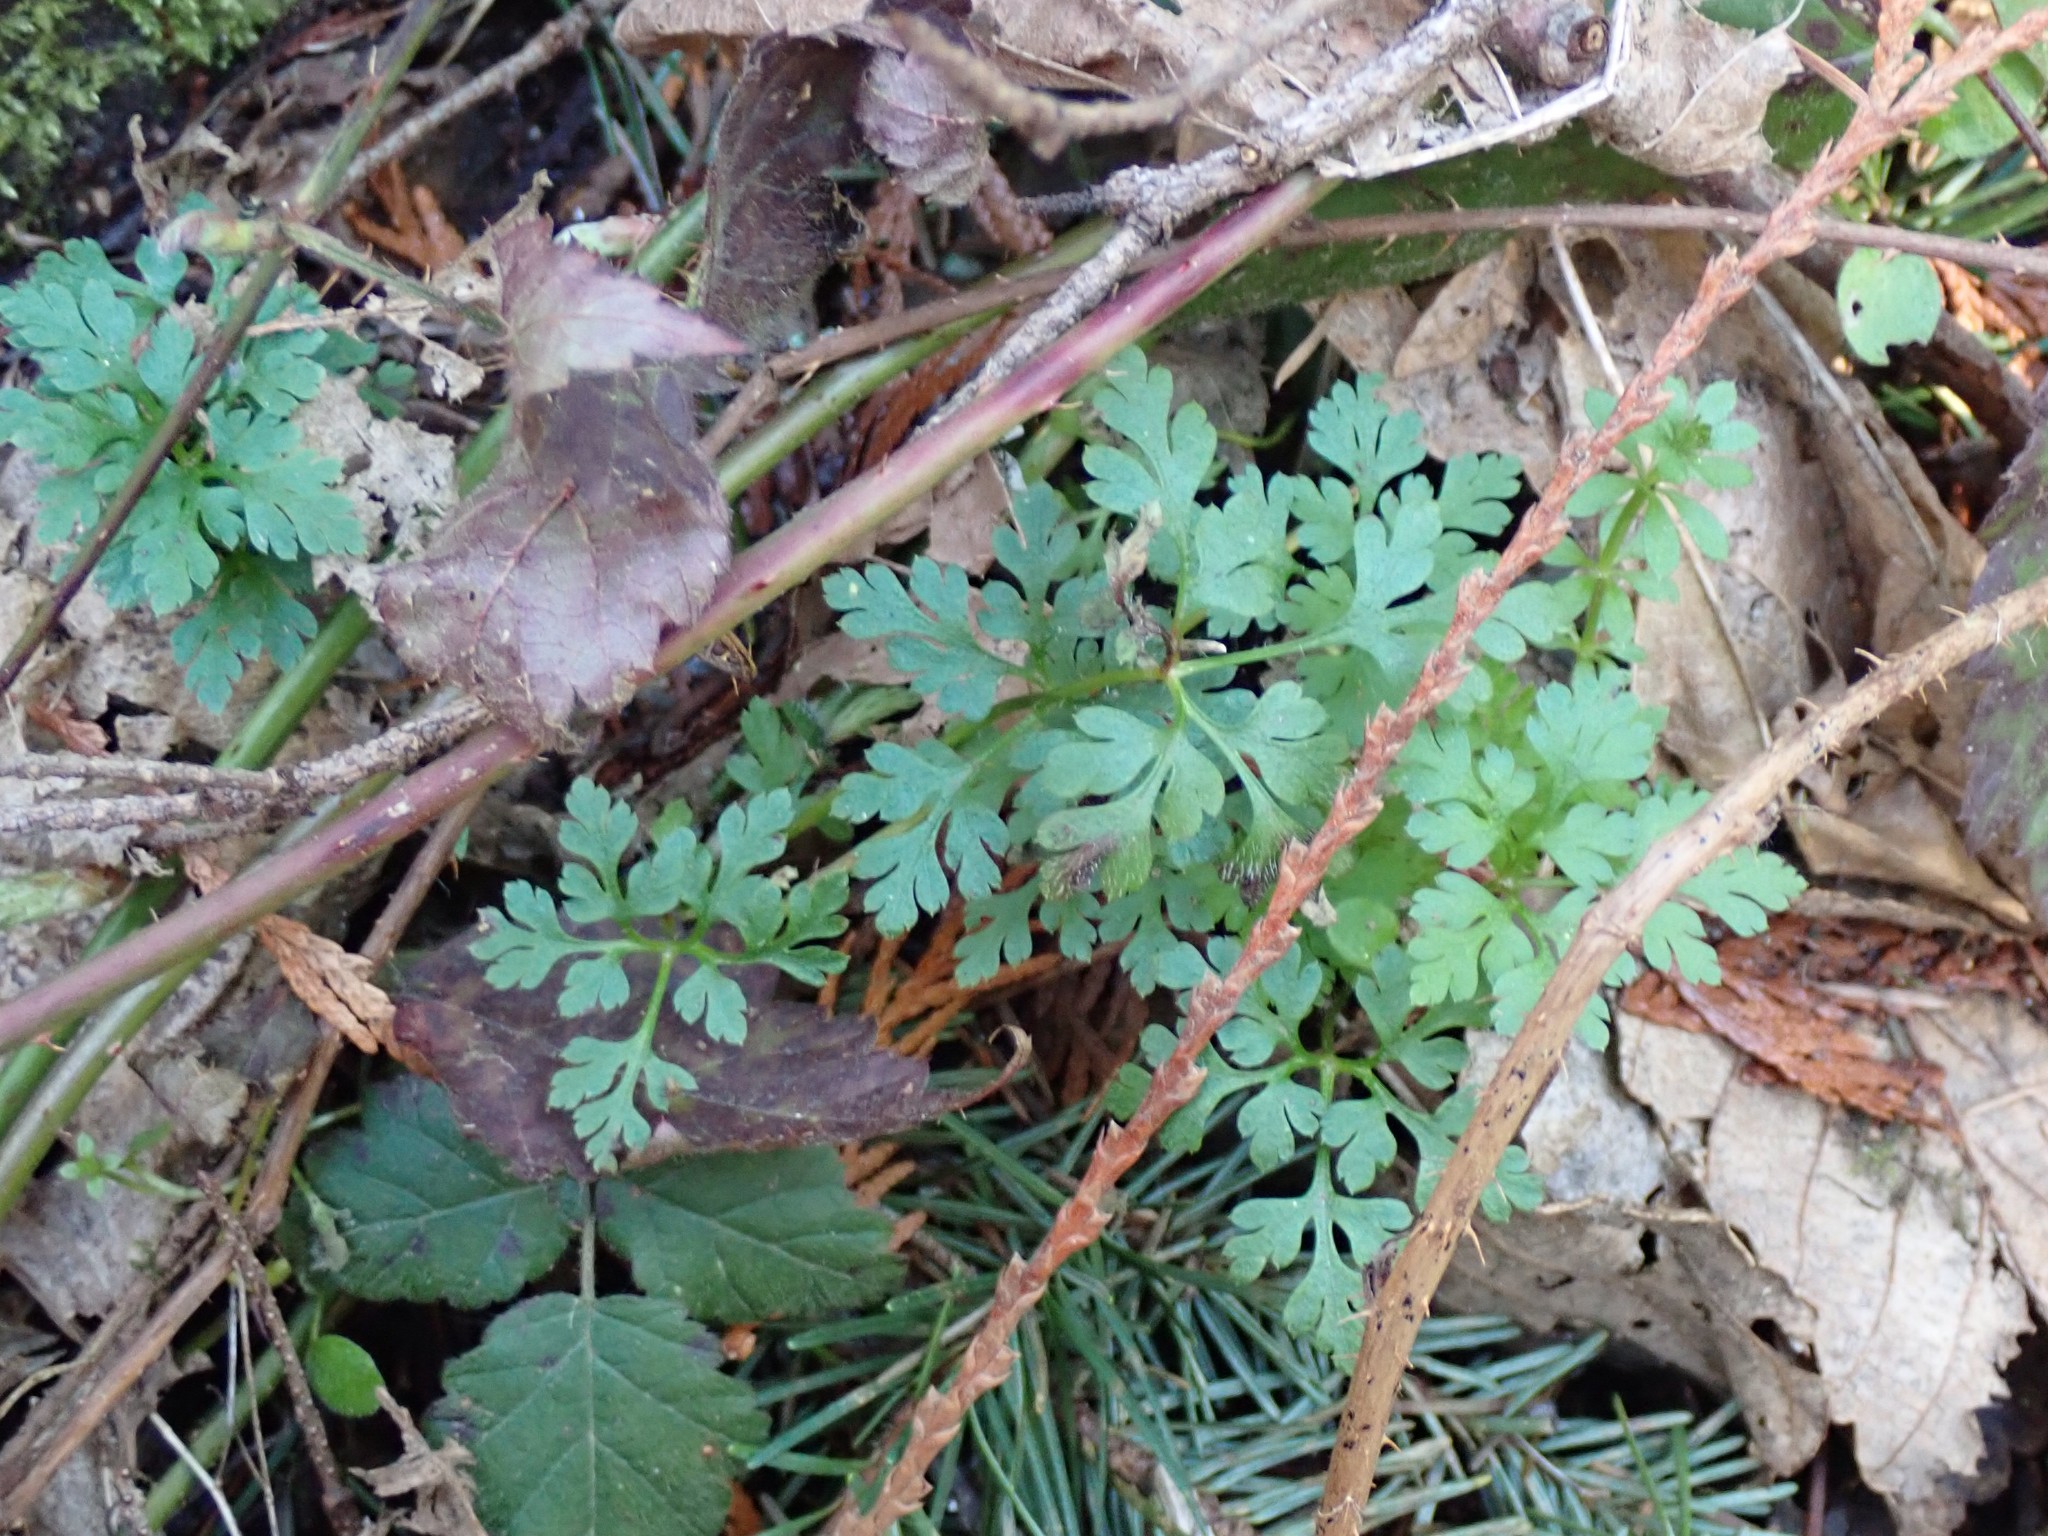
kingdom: Plantae
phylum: Tracheophyta
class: Magnoliopsida
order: Geraniales
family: Geraniaceae
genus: Geranium
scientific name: Geranium robertianum
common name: Herb-robert
